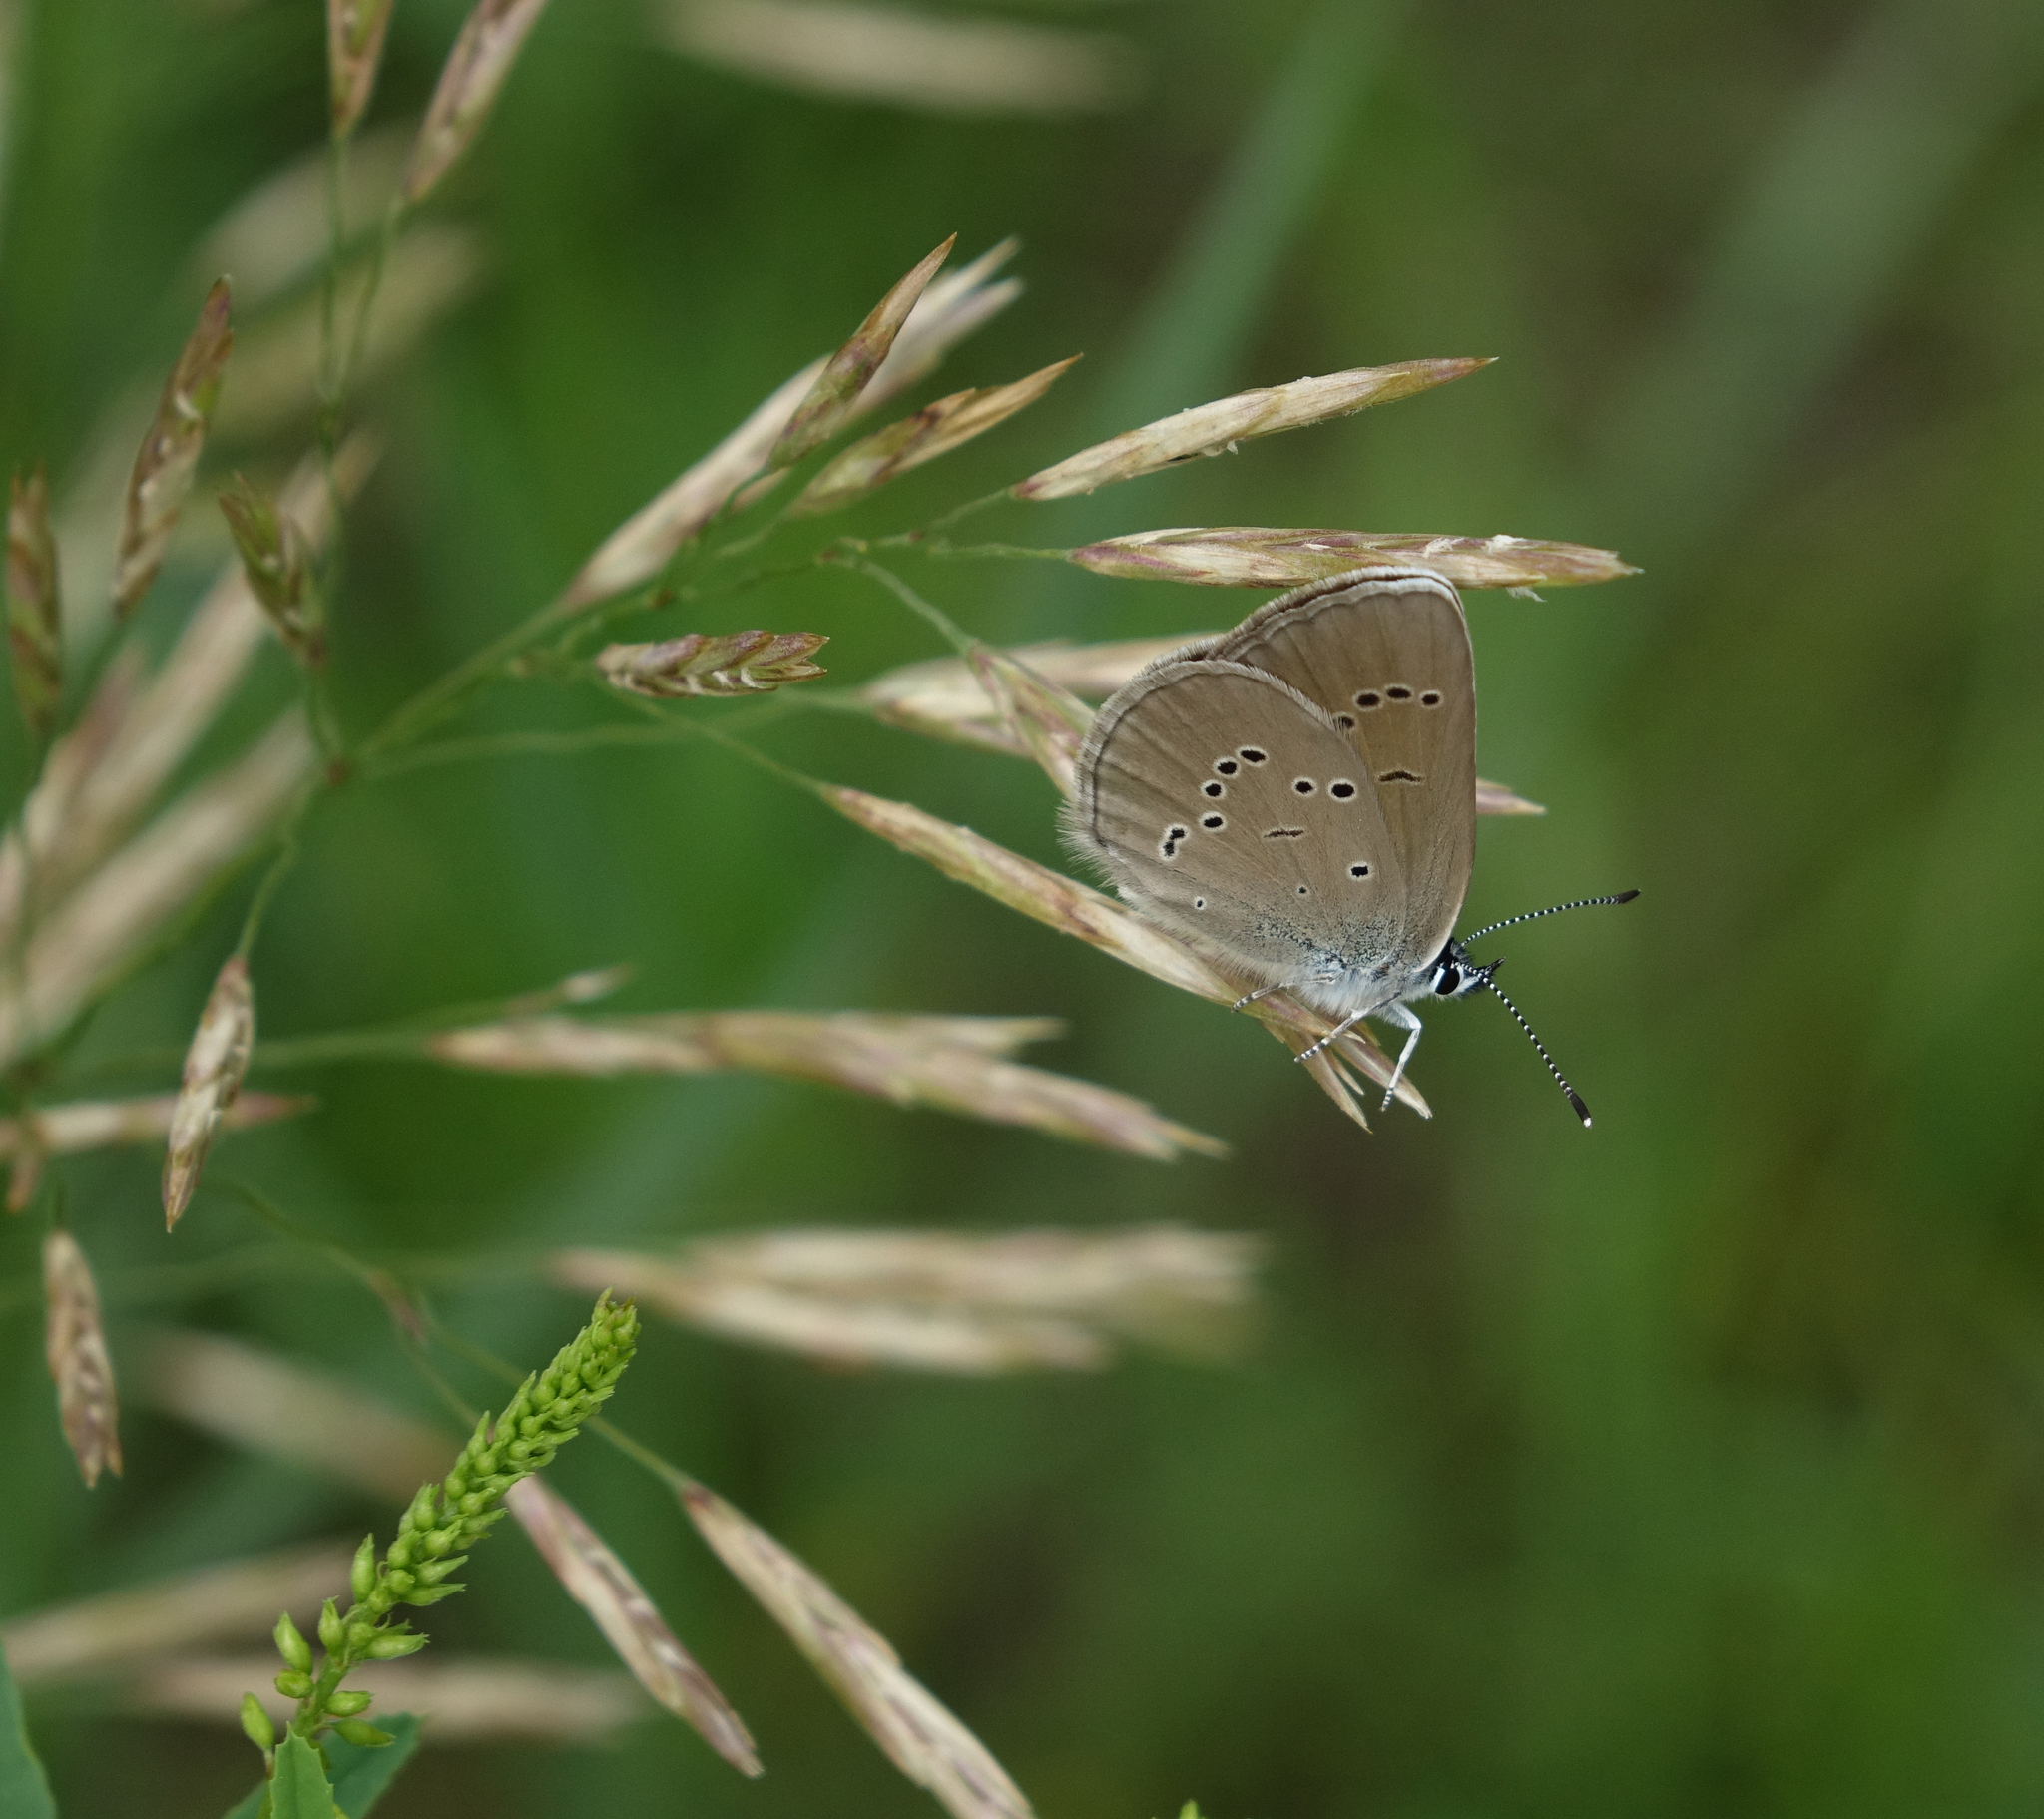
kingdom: Plantae
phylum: Tracheophyta
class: Liliopsida
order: Poales
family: Poaceae
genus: Bromus
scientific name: Bromus inermis
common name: Smooth brome
